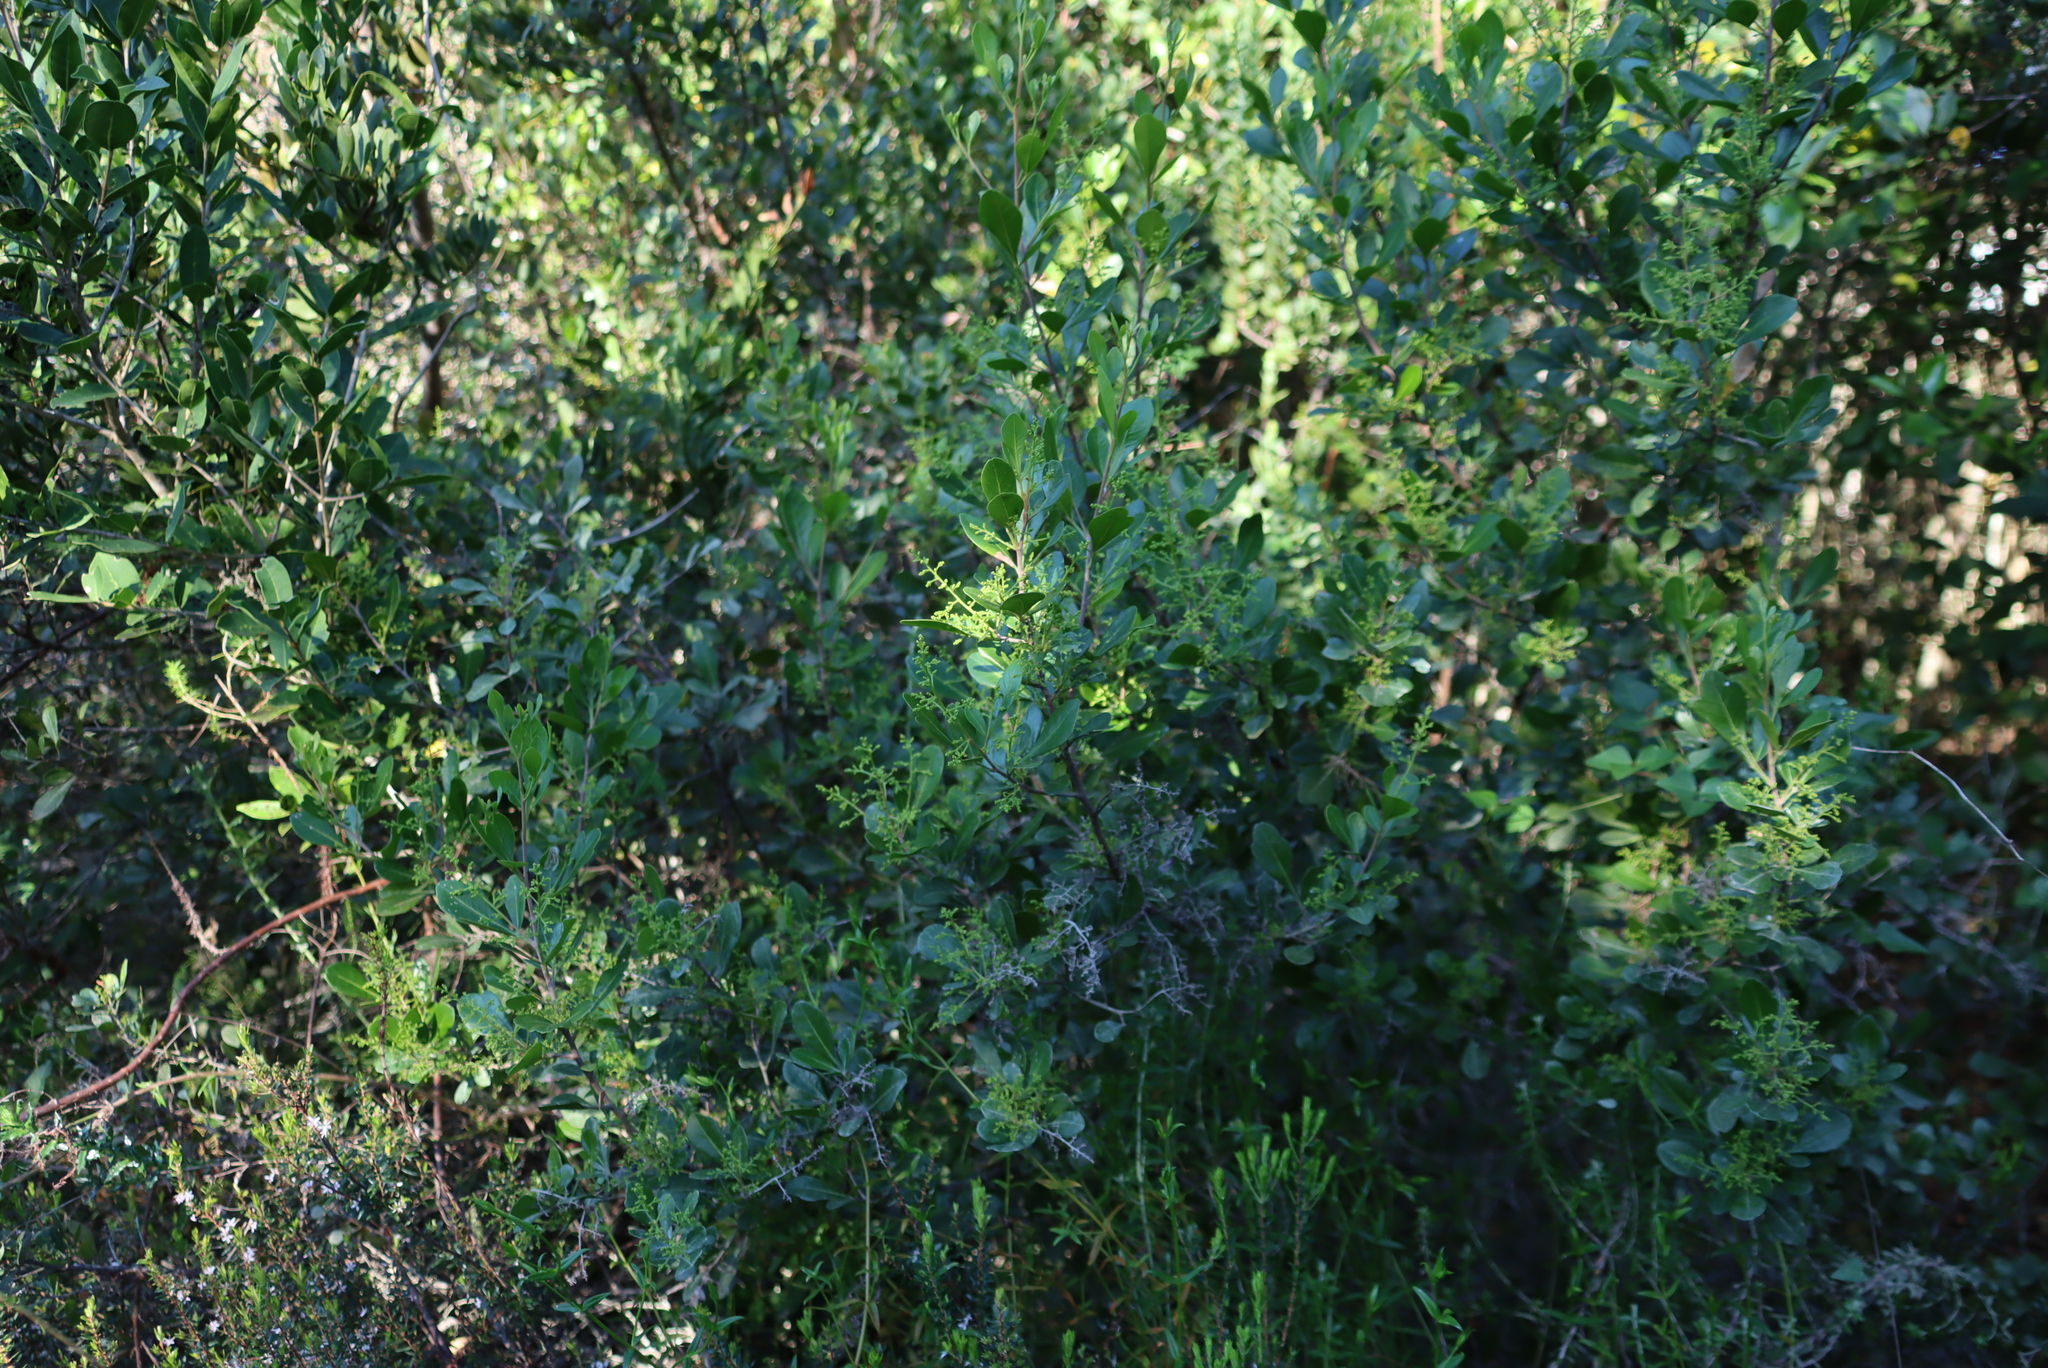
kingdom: Plantae
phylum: Tracheophyta
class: Magnoliopsida
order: Sapindales
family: Anacardiaceae
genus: Searsia
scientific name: Searsia lucida
